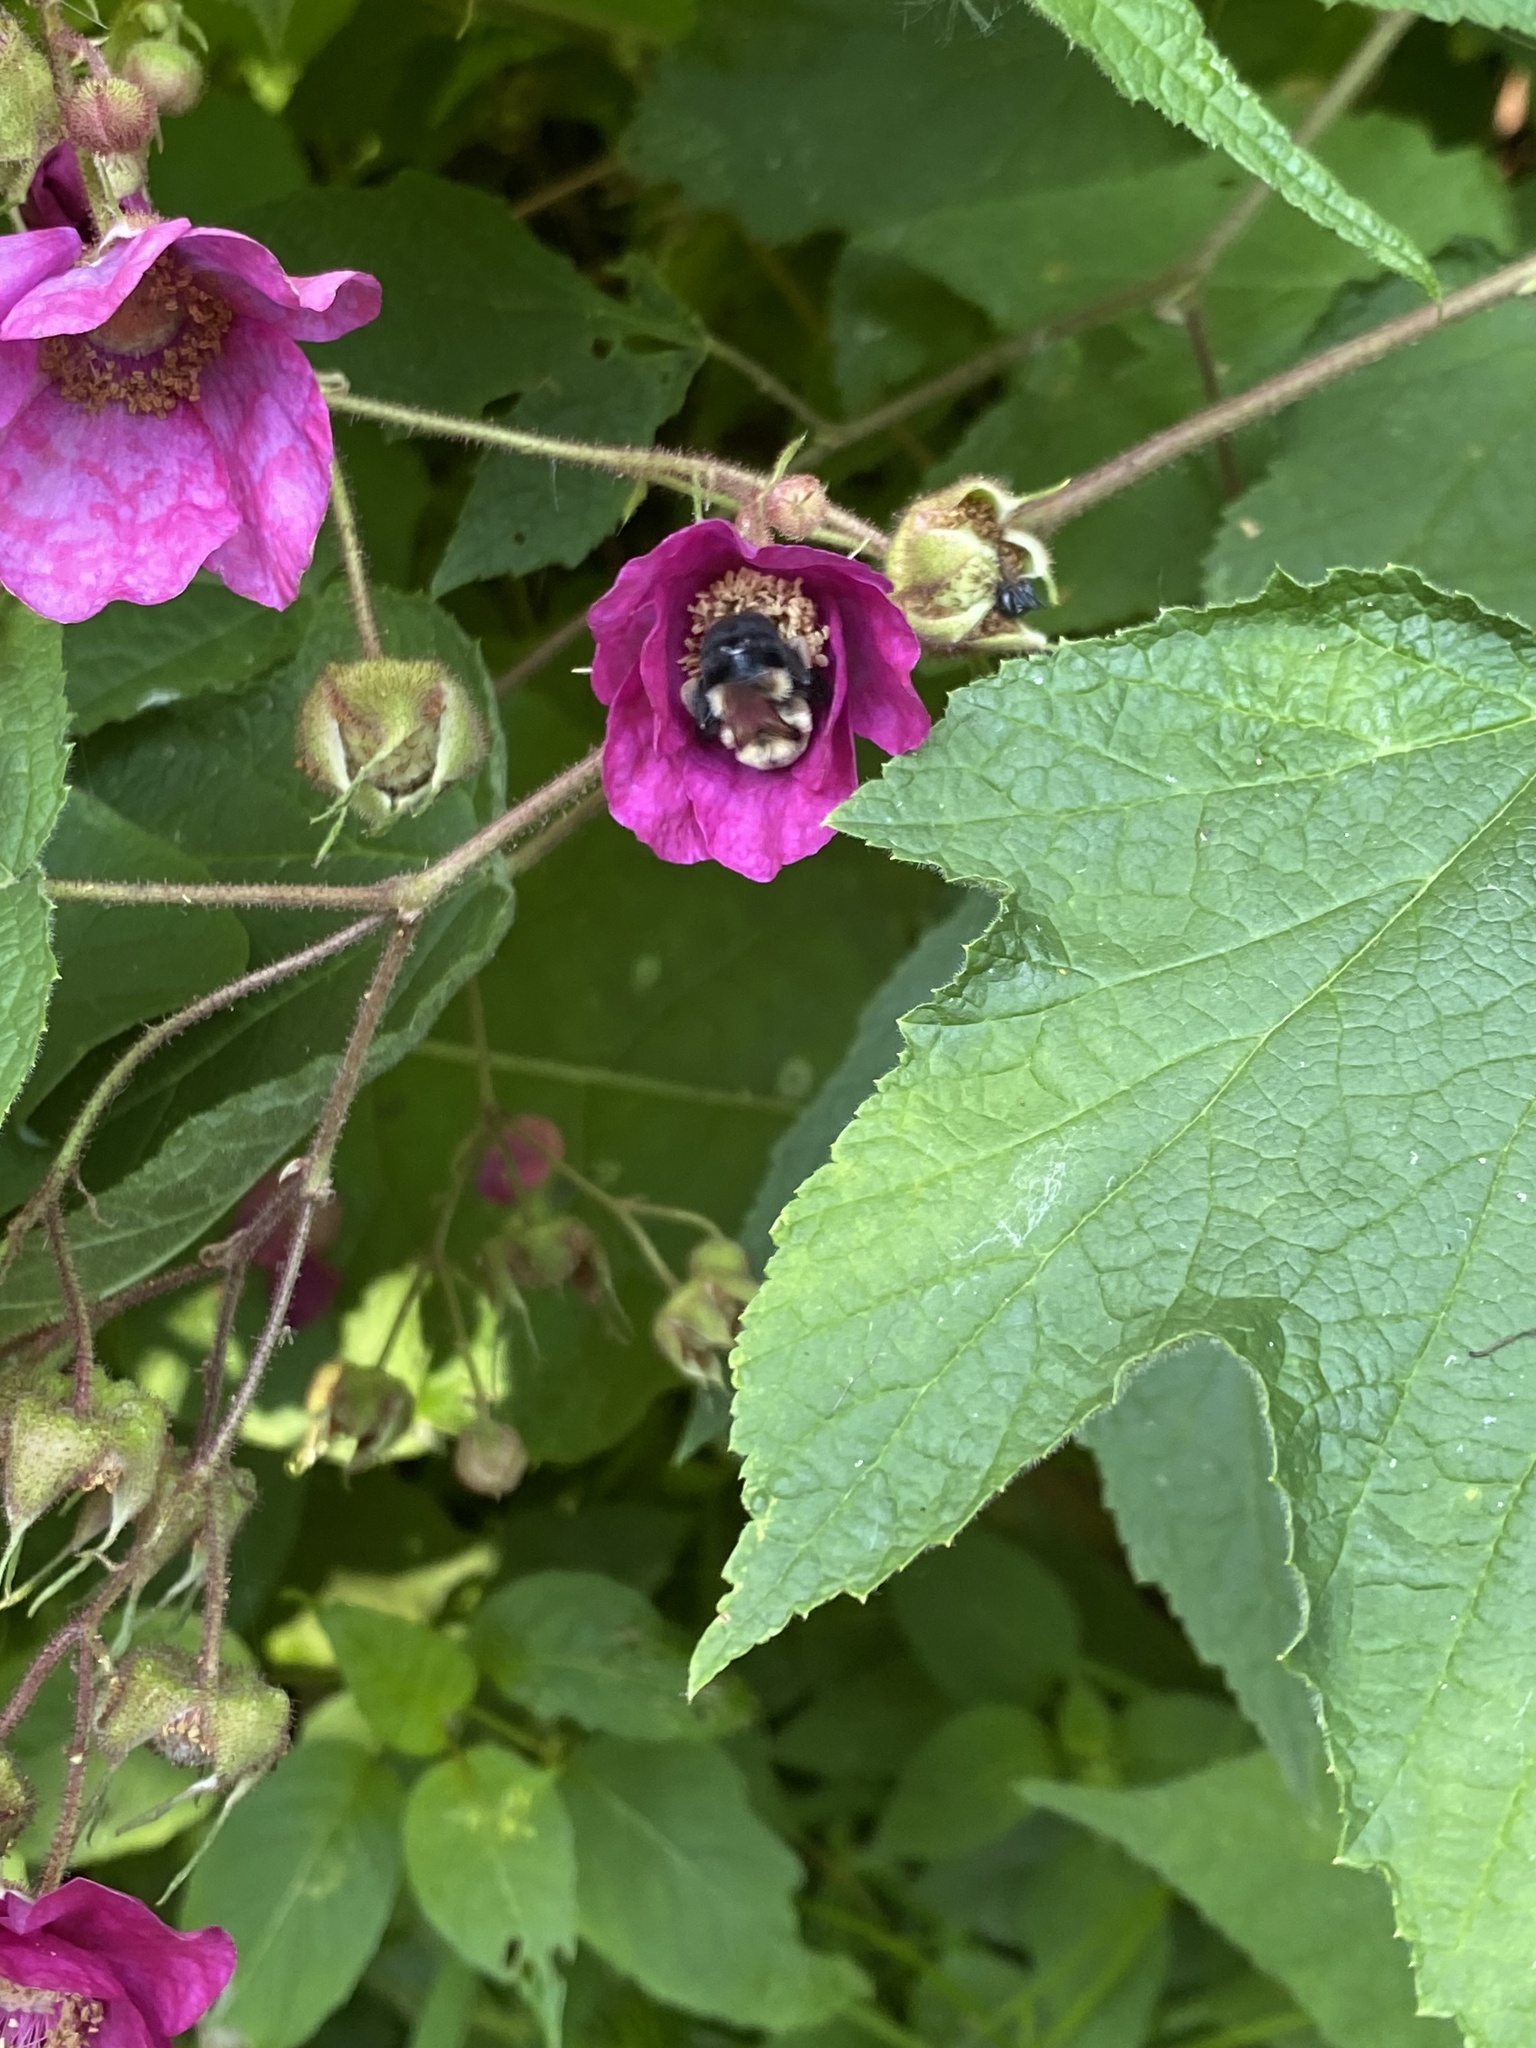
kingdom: Animalia
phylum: Arthropoda
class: Insecta
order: Hymenoptera
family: Apidae
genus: Bombus
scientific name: Bombus impatiens
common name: Common eastern bumble bee
